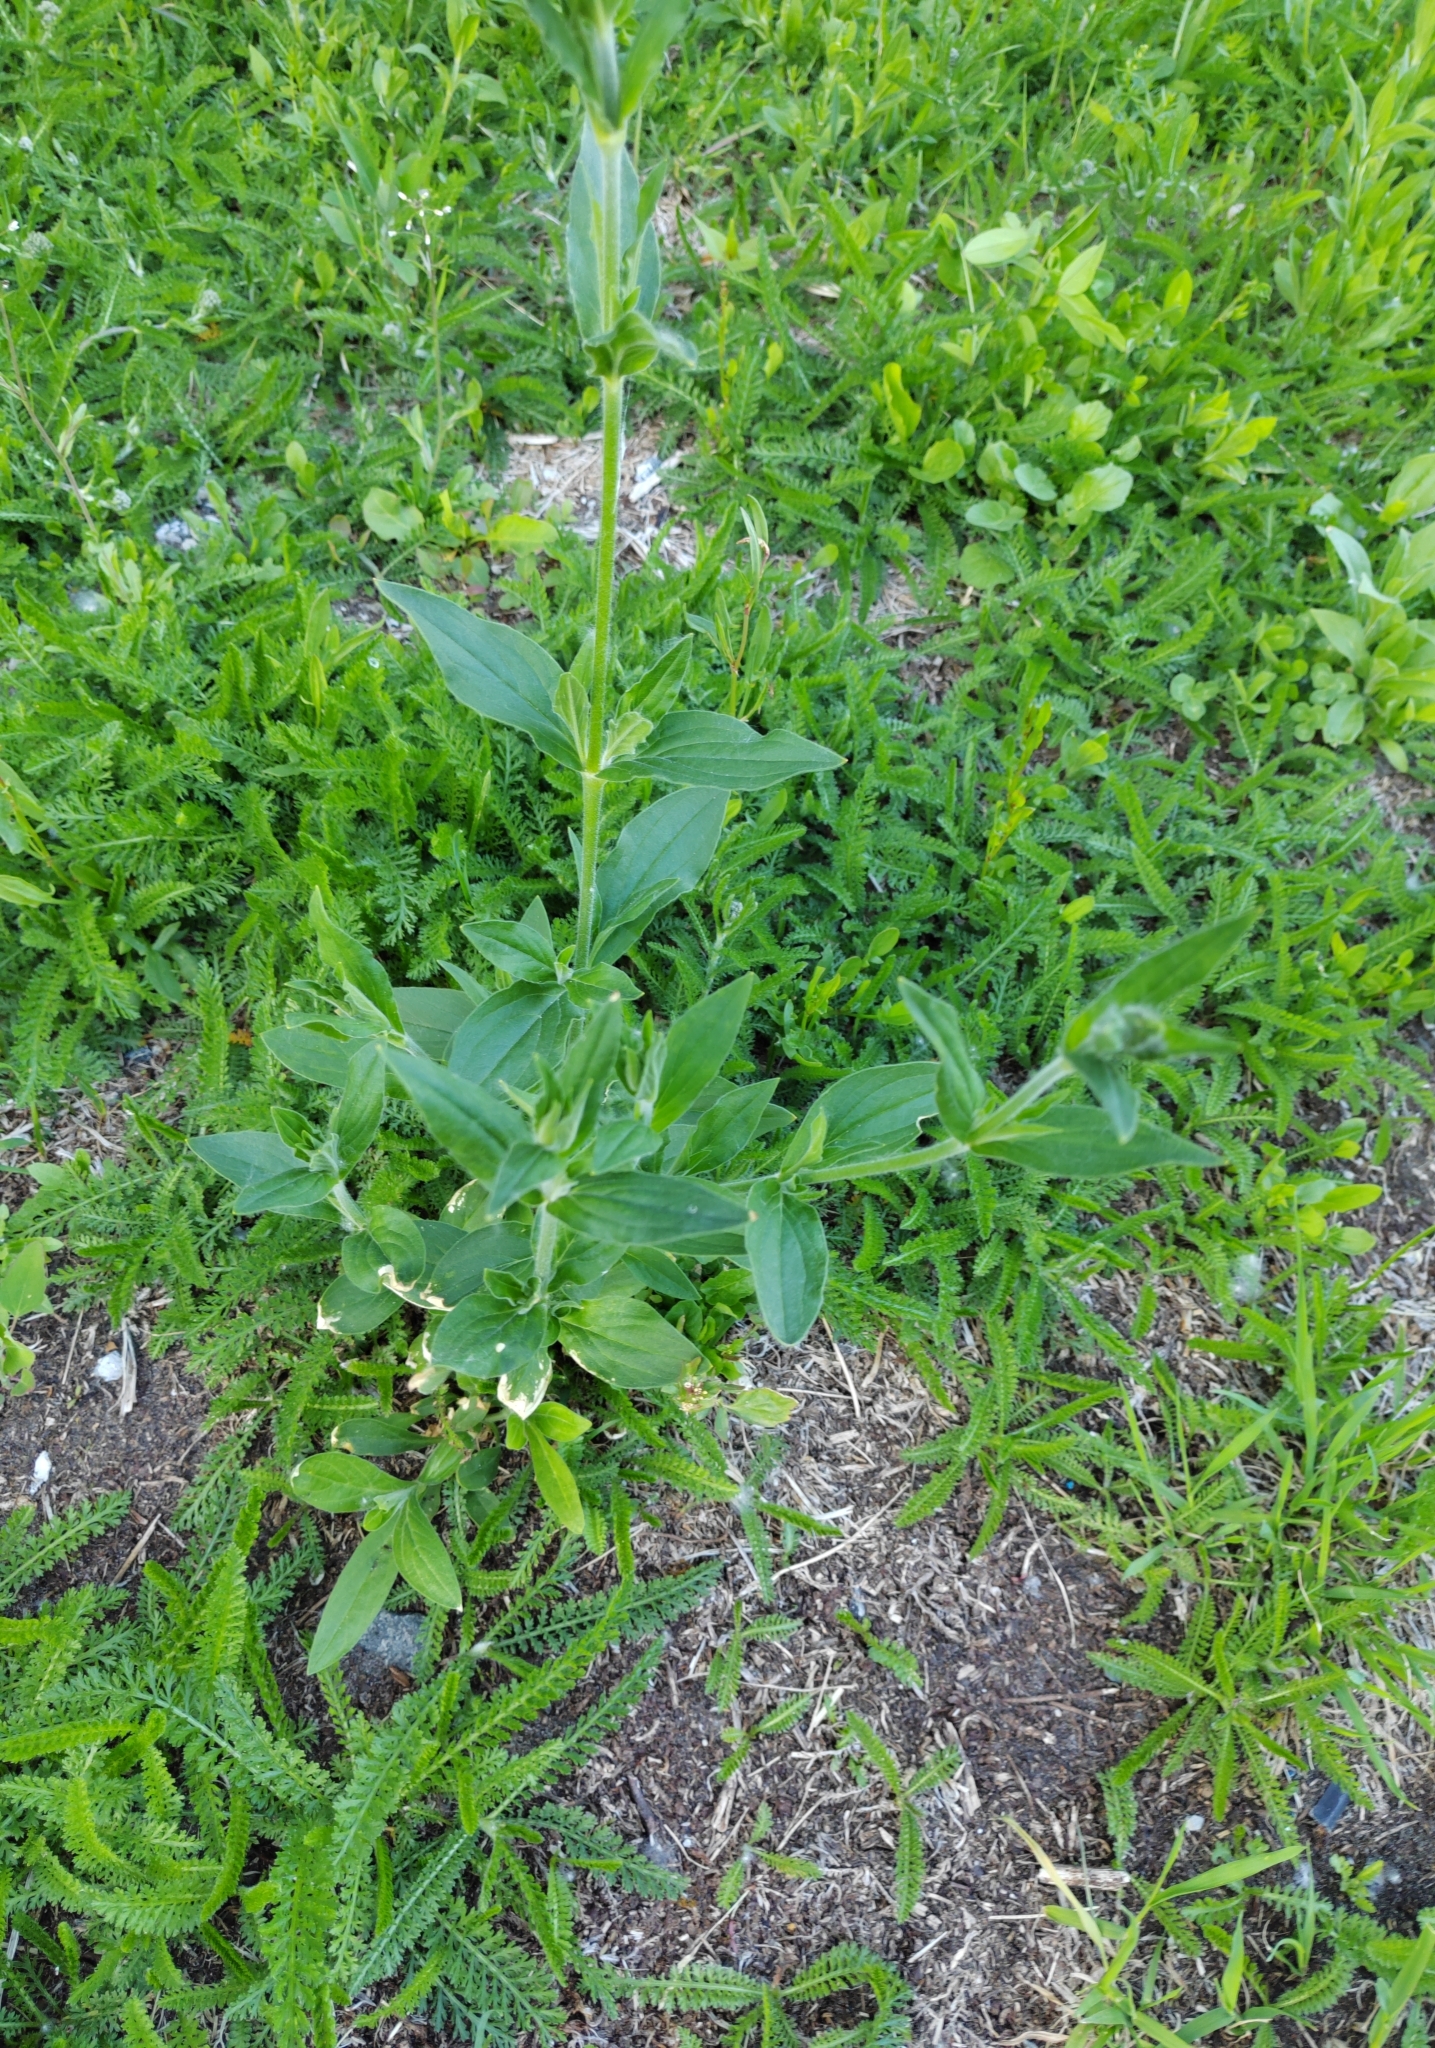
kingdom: Plantae
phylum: Tracheophyta
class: Magnoliopsida
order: Caryophyllales
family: Caryophyllaceae
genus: Silene
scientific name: Silene latifolia
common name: White campion
